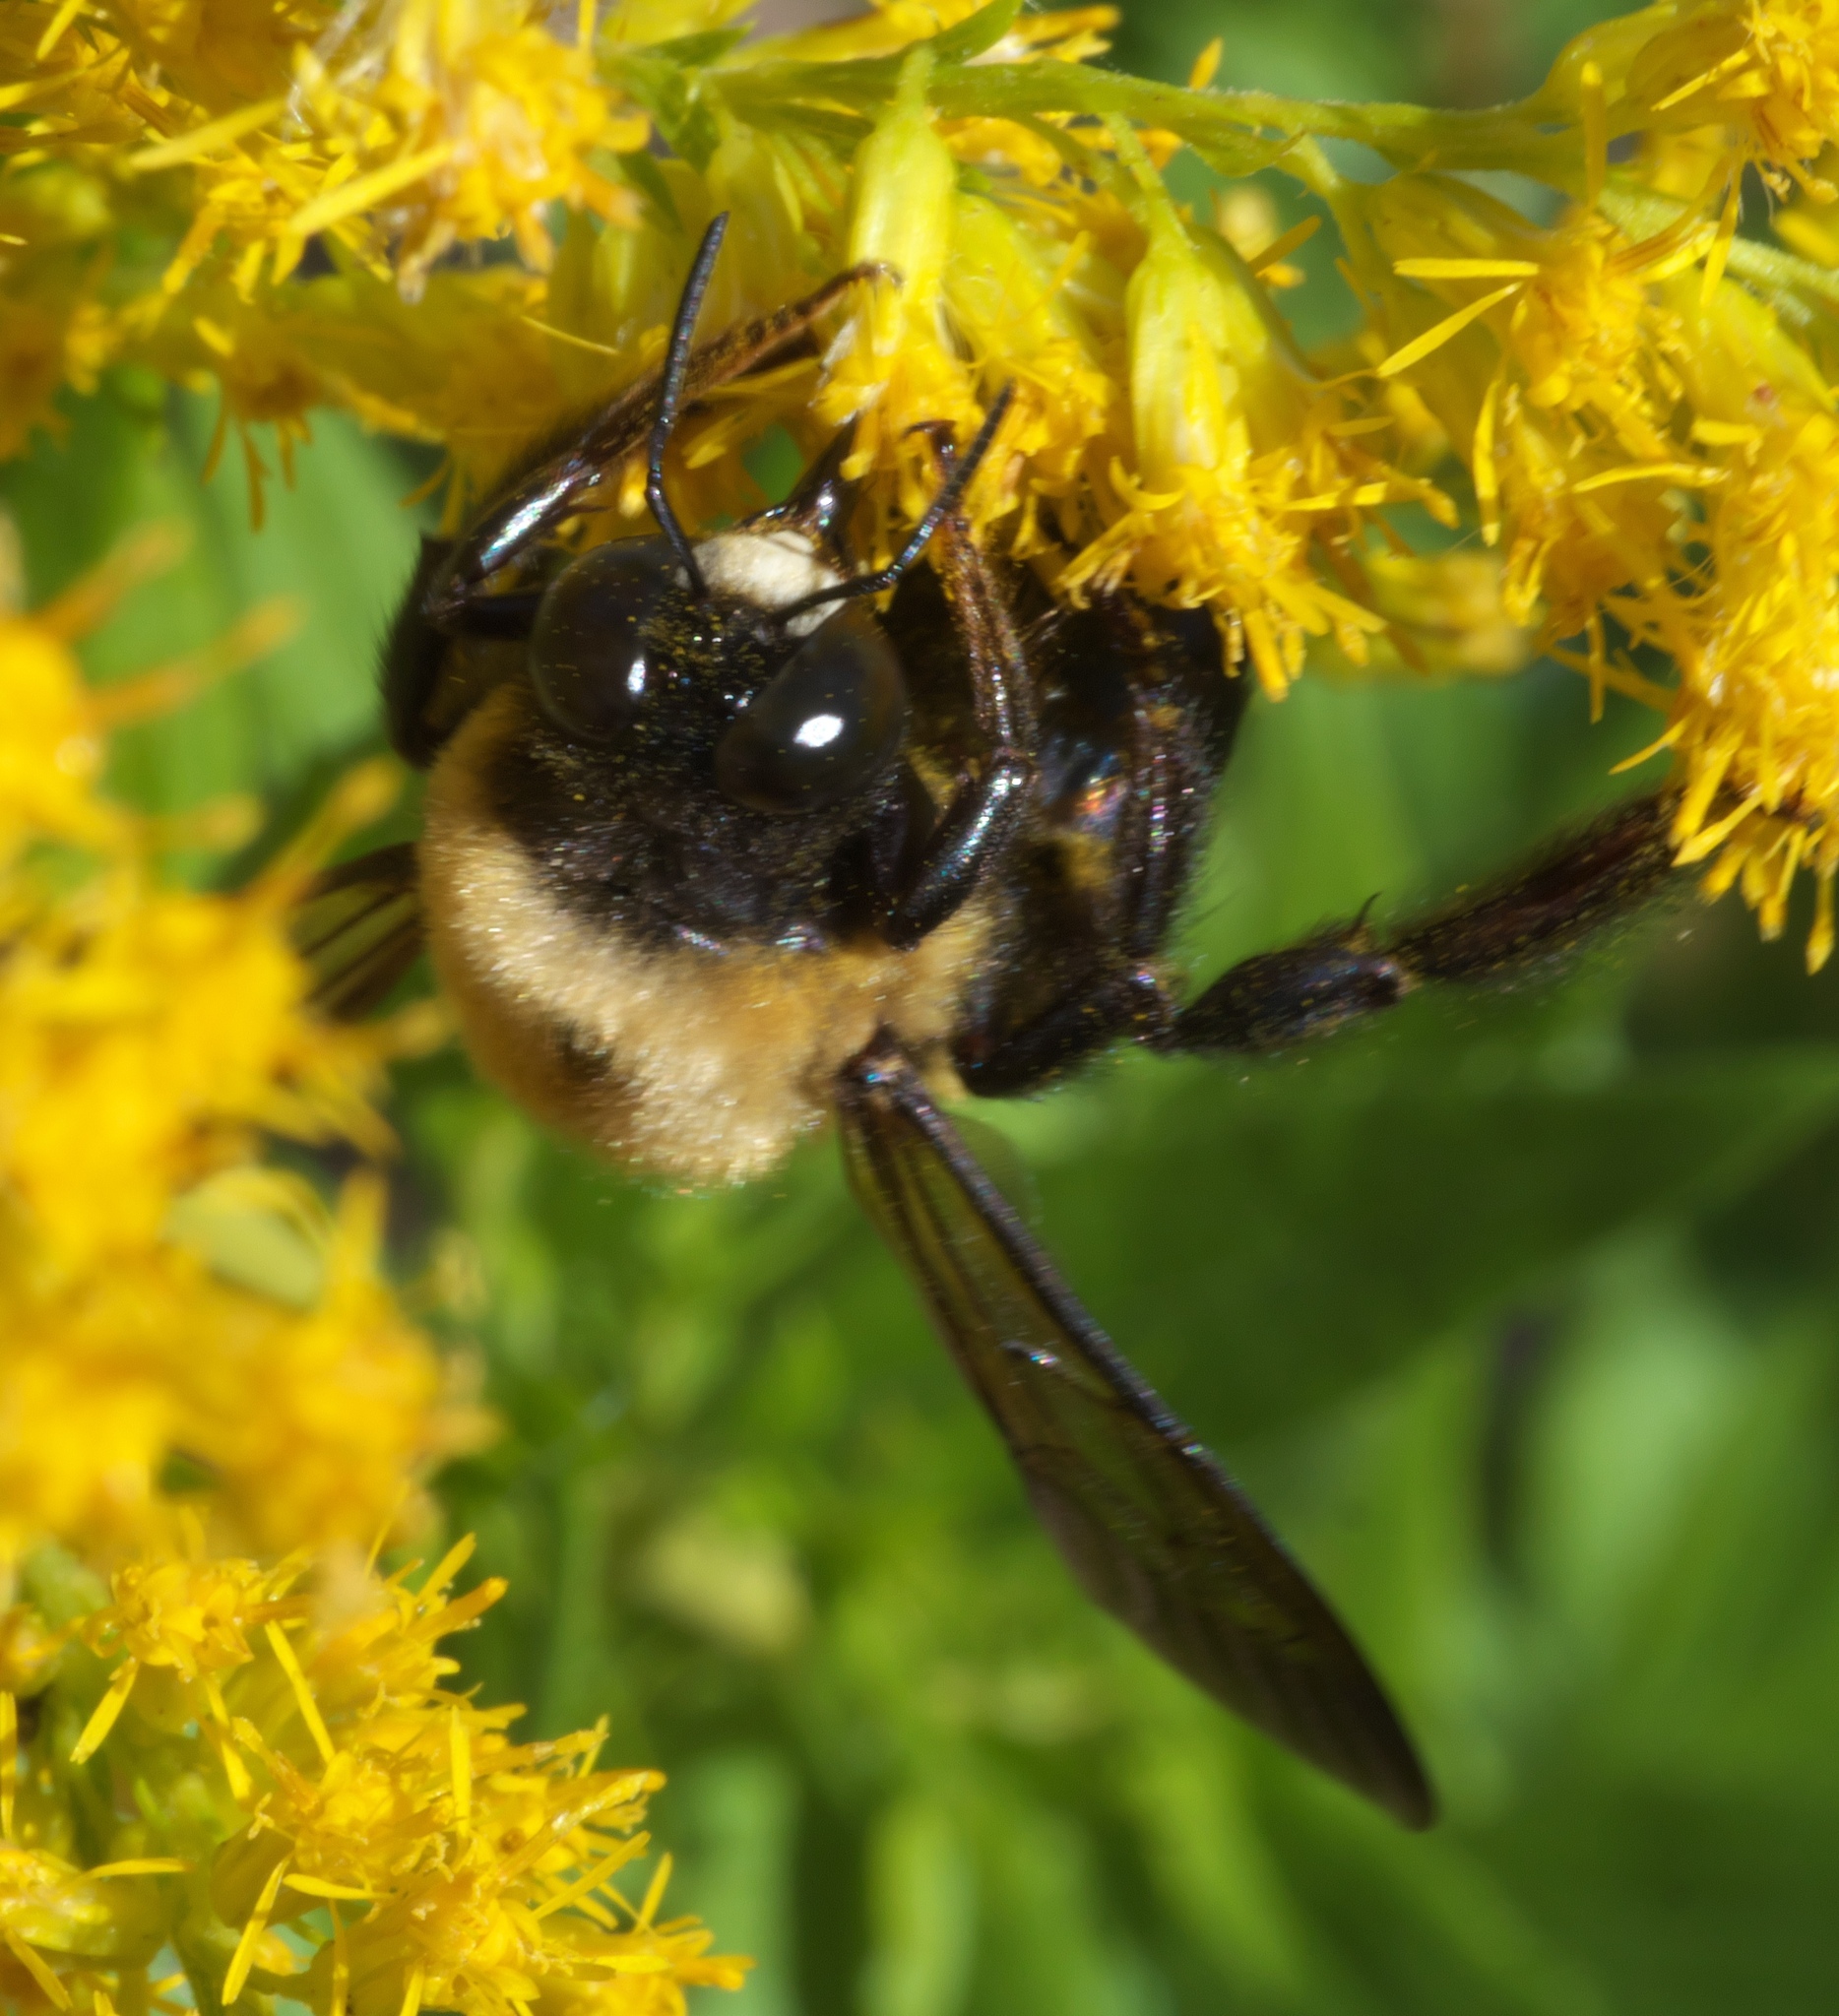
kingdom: Animalia
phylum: Arthropoda
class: Insecta
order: Hymenoptera
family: Apidae
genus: Xylocopa
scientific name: Xylocopa virginica
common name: Carpenter bee
